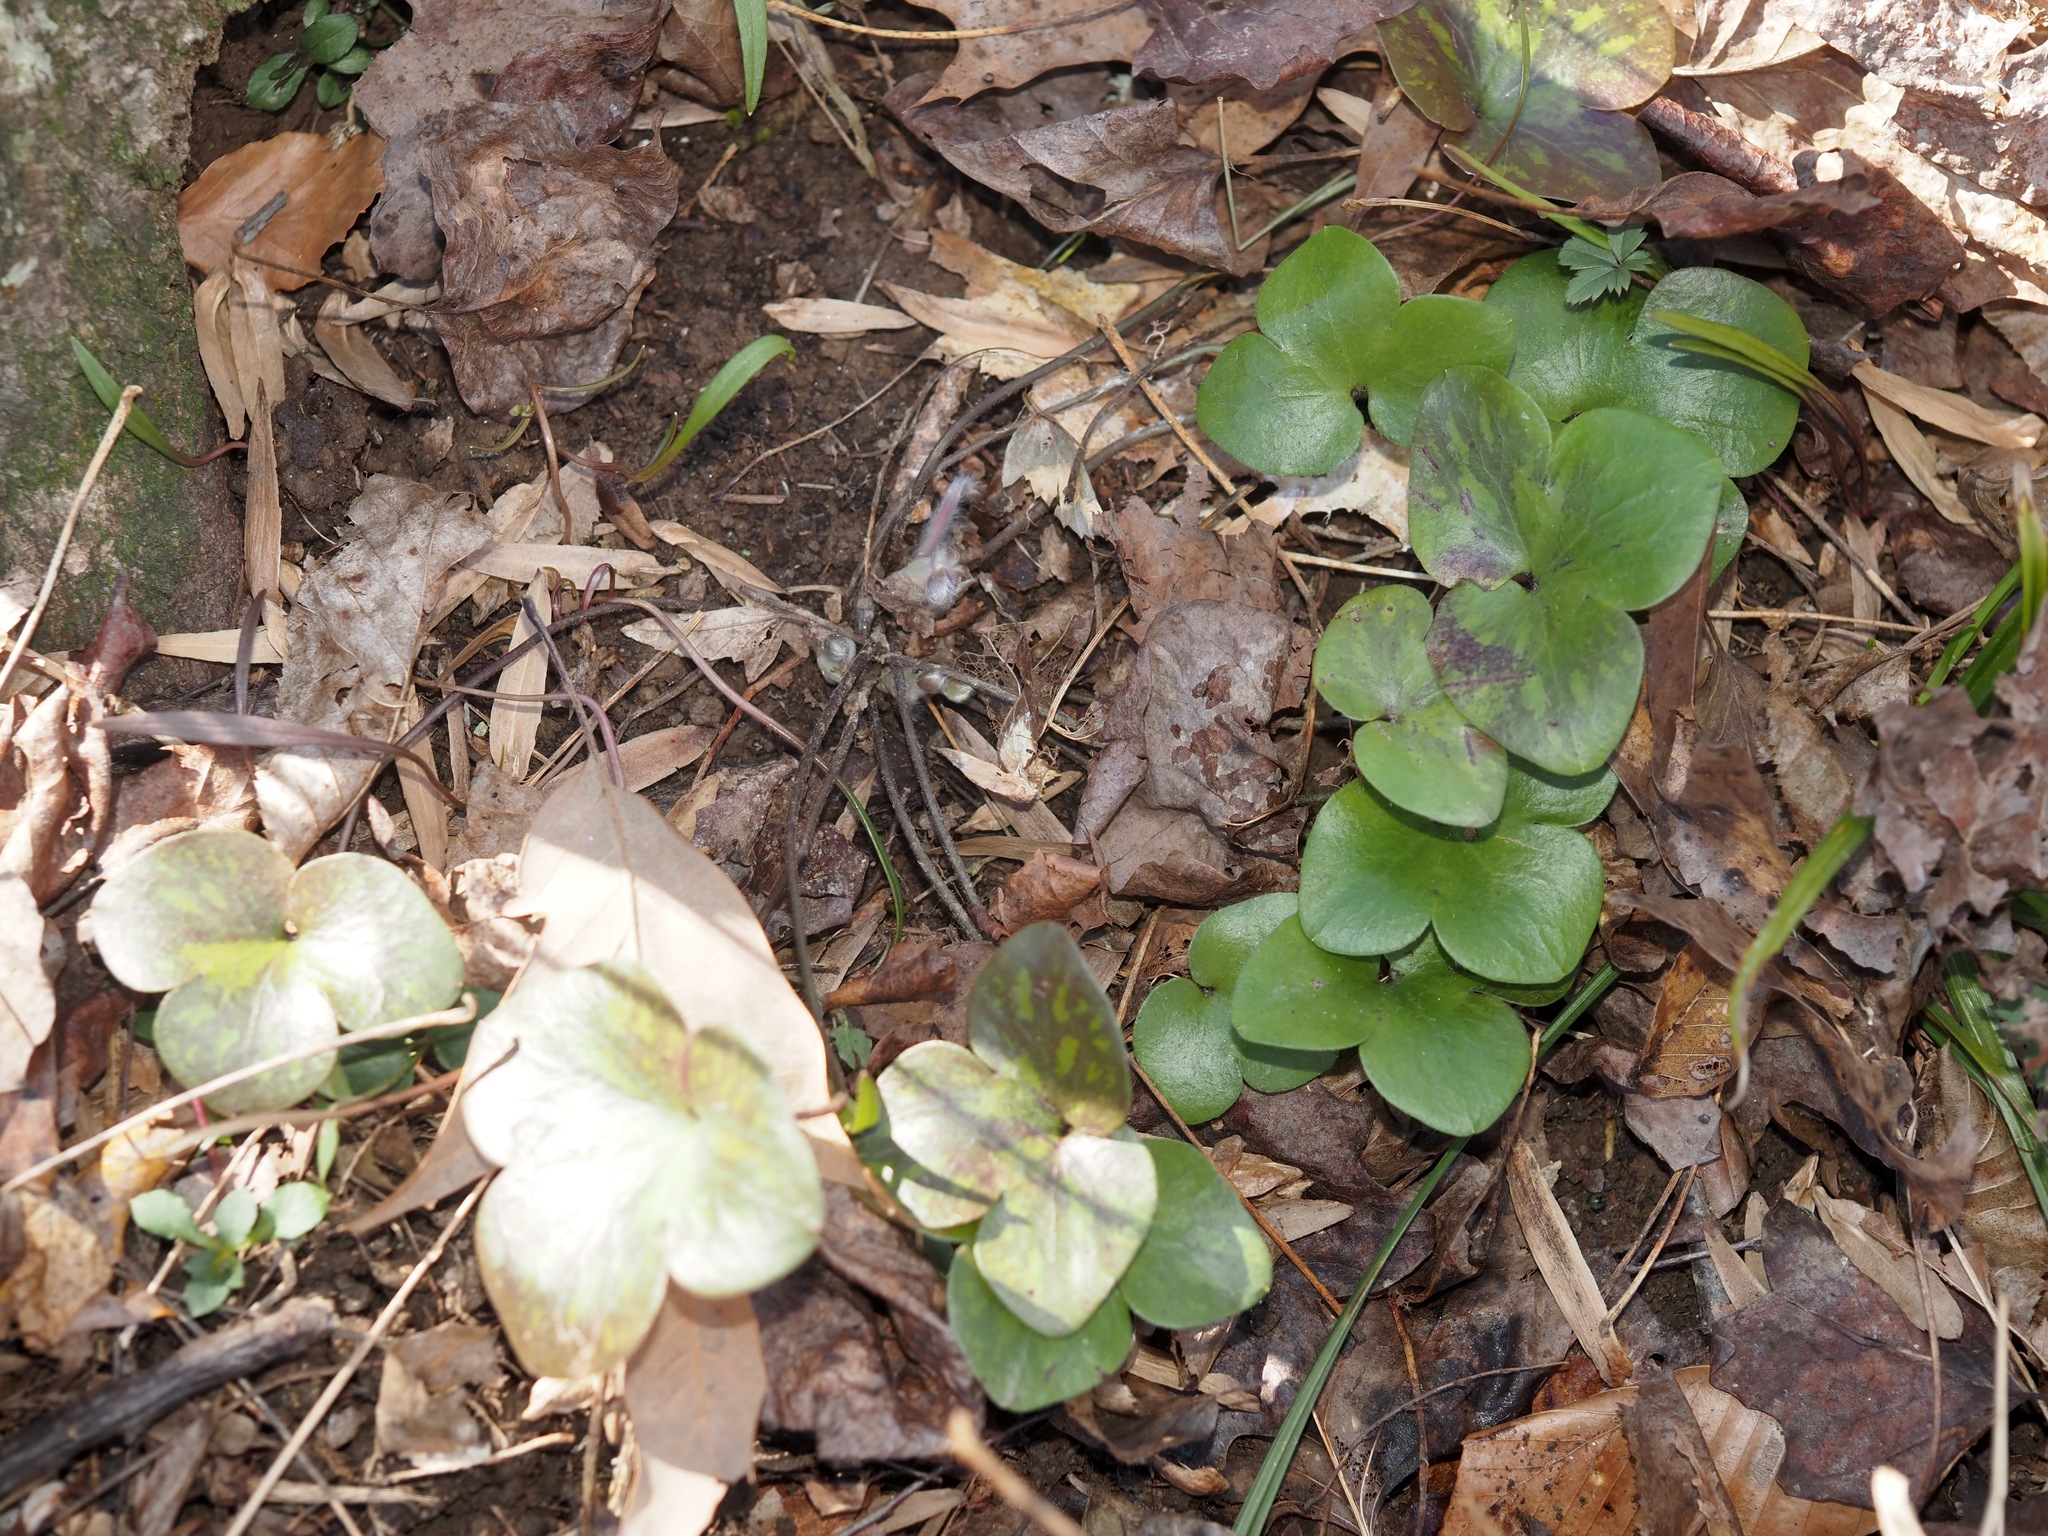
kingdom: Plantae
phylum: Tracheophyta
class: Magnoliopsida
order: Ranunculales
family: Ranunculaceae
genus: Hepatica
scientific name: Hepatica americana
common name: American hepatica
